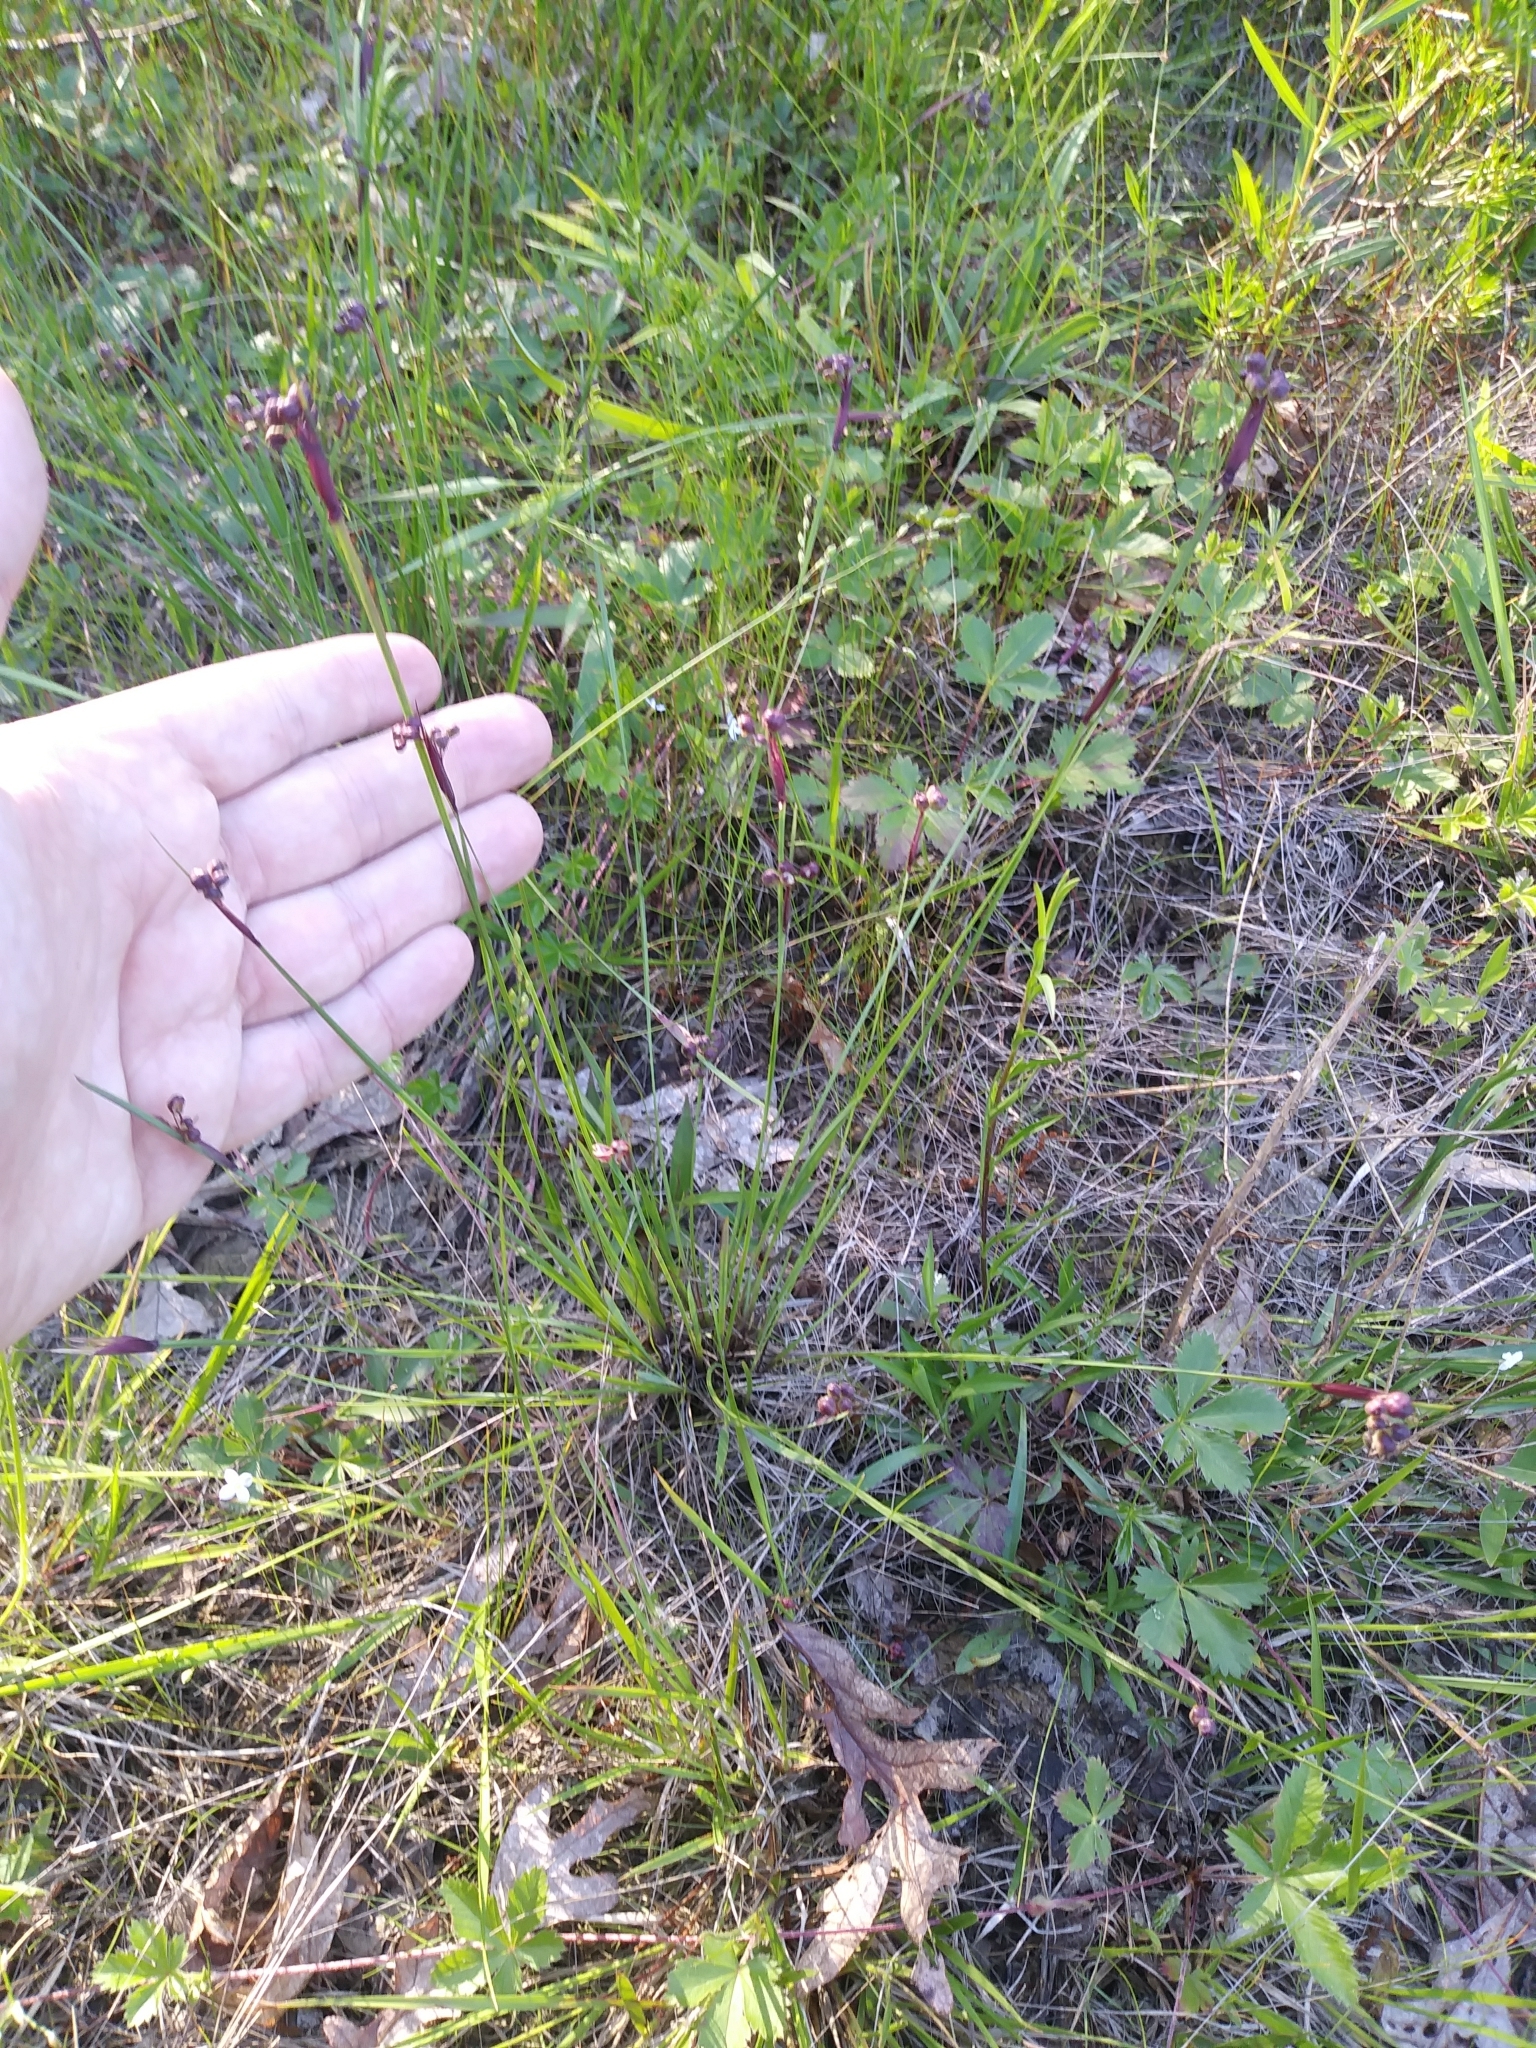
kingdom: Plantae
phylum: Tracheophyta
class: Liliopsida
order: Asparagales
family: Iridaceae
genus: Sisyrinchium
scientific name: Sisyrinchium mucronatum
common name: Eastern blue-eyed-grass
